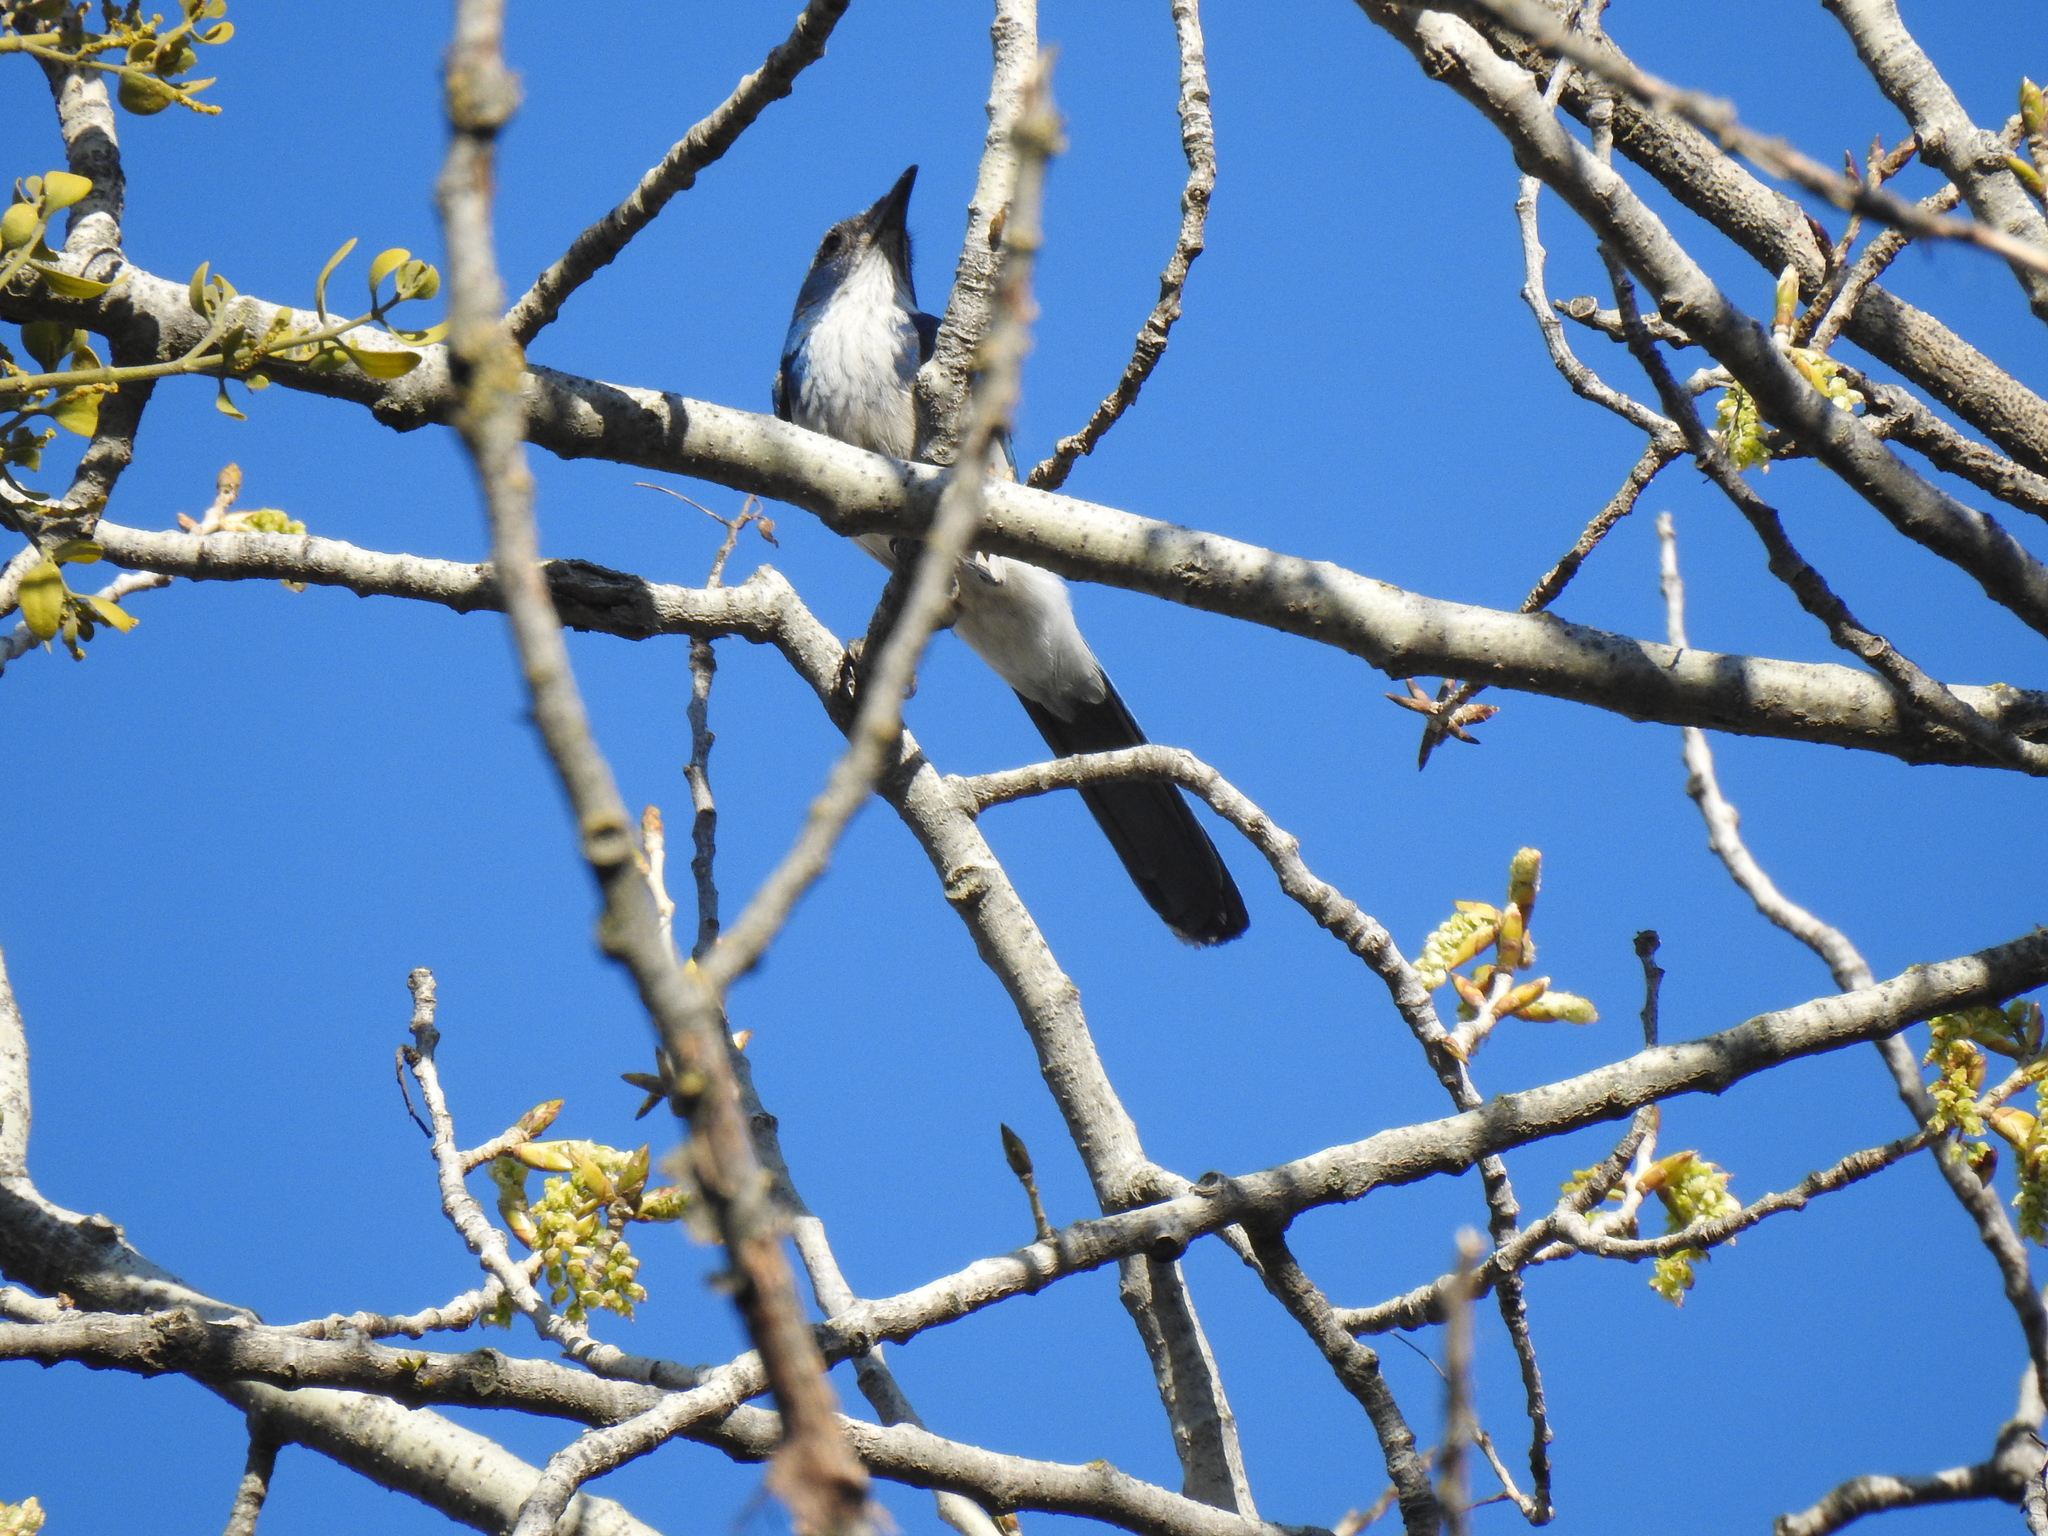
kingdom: Animalia
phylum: Chordata
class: Aves
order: Passeriformes
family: Corvidae
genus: Aphelocoma
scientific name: Aphelocoma californica
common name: California scrub-jay
